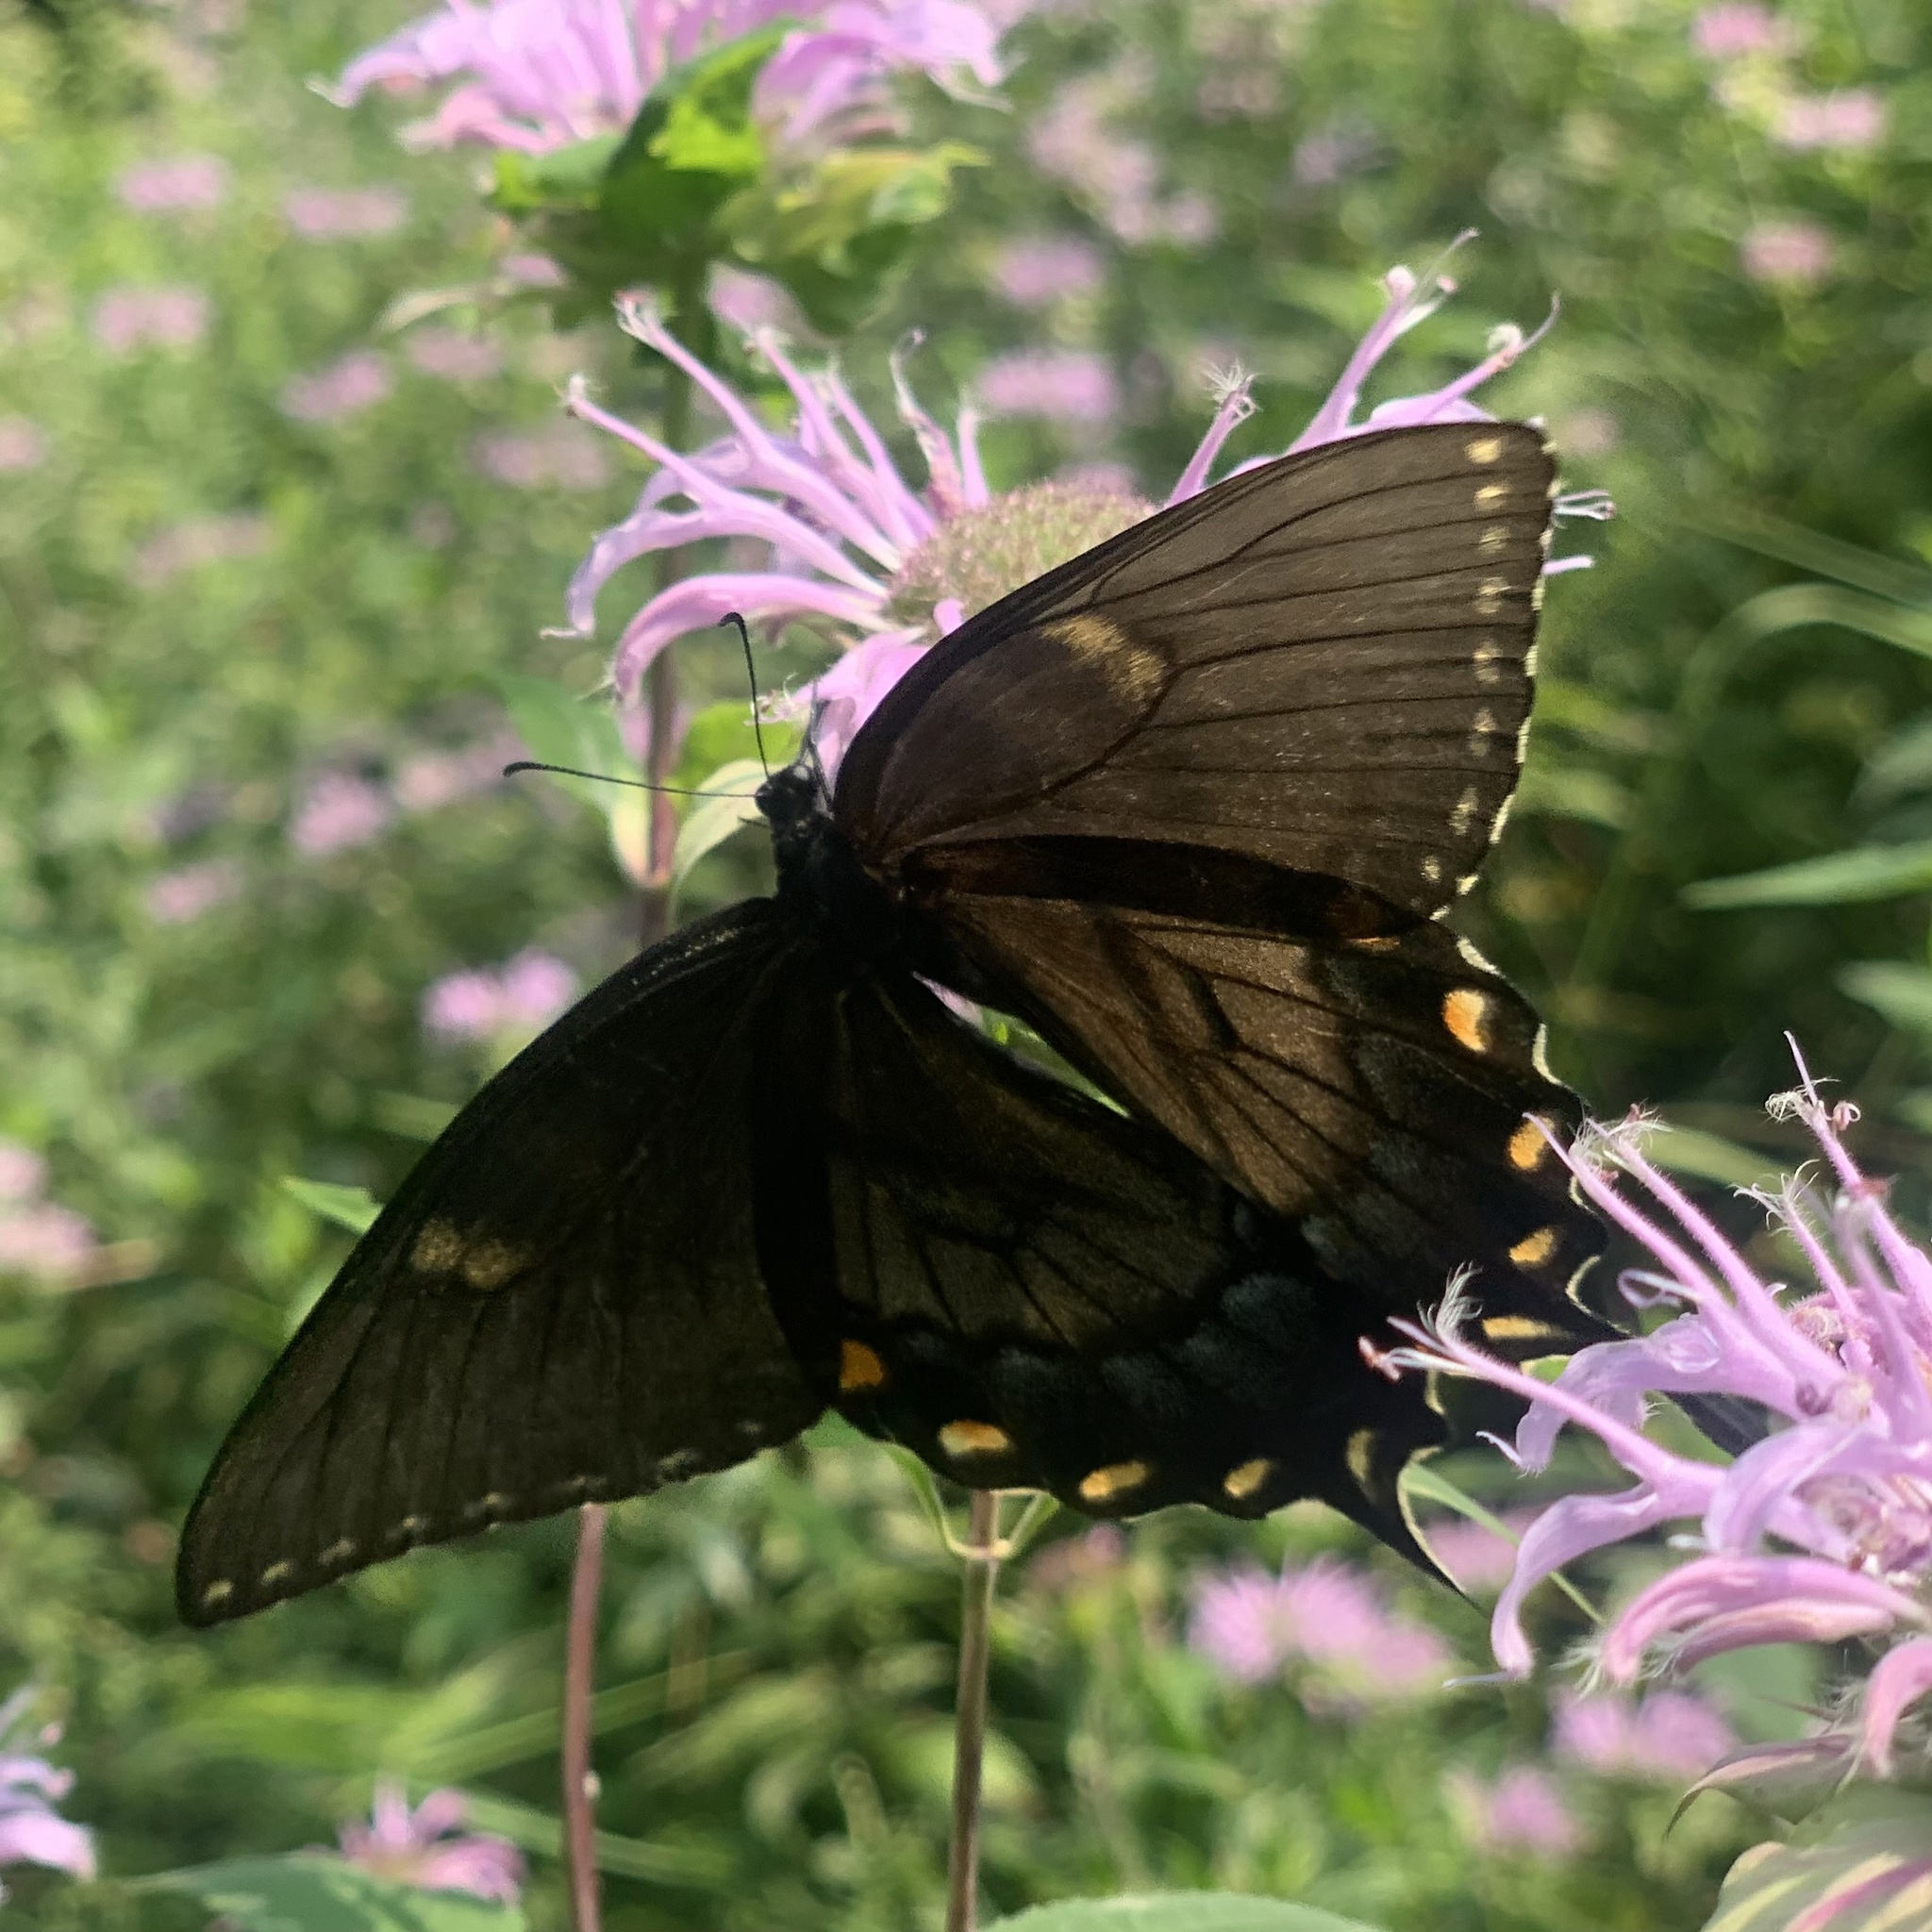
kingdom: Animalia
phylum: Arthropoda
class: Insecta
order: Lepidoptera
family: Papilionidae
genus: Papilio
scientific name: Papilio glaucus
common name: Tiger swallowtail
